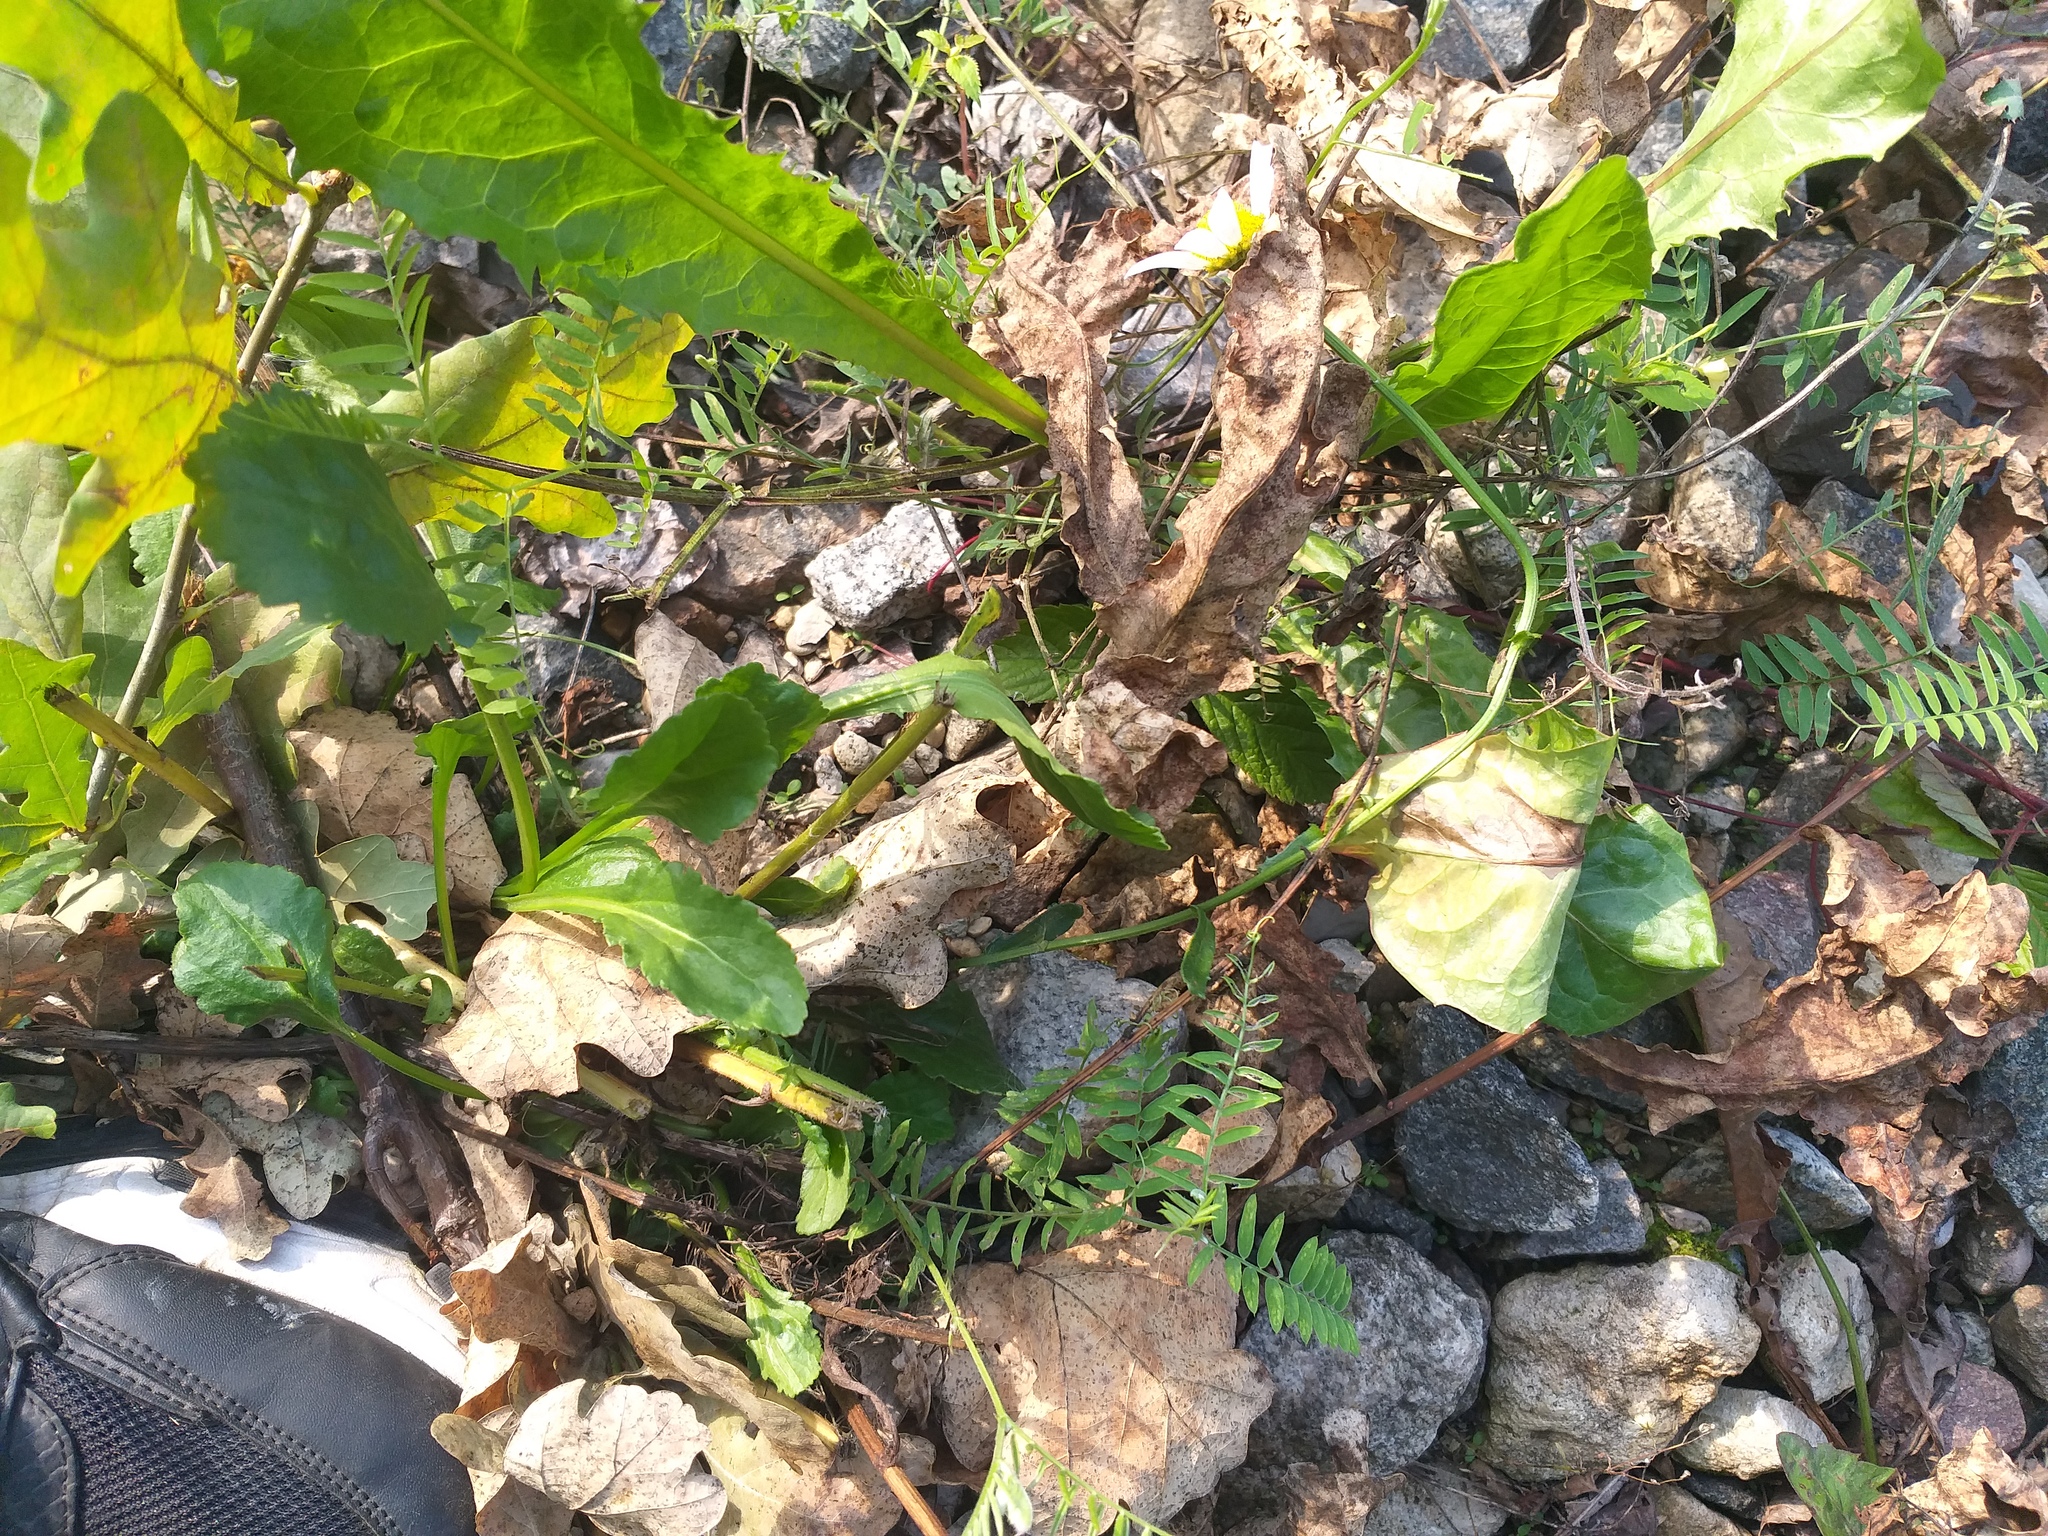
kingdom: Plantae
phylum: Tracheophyta
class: Magnoliopsida
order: Asterales
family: Asteraceae
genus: Leucanthemum
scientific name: Leucanthemum vulgare
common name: Oxeye daisy
